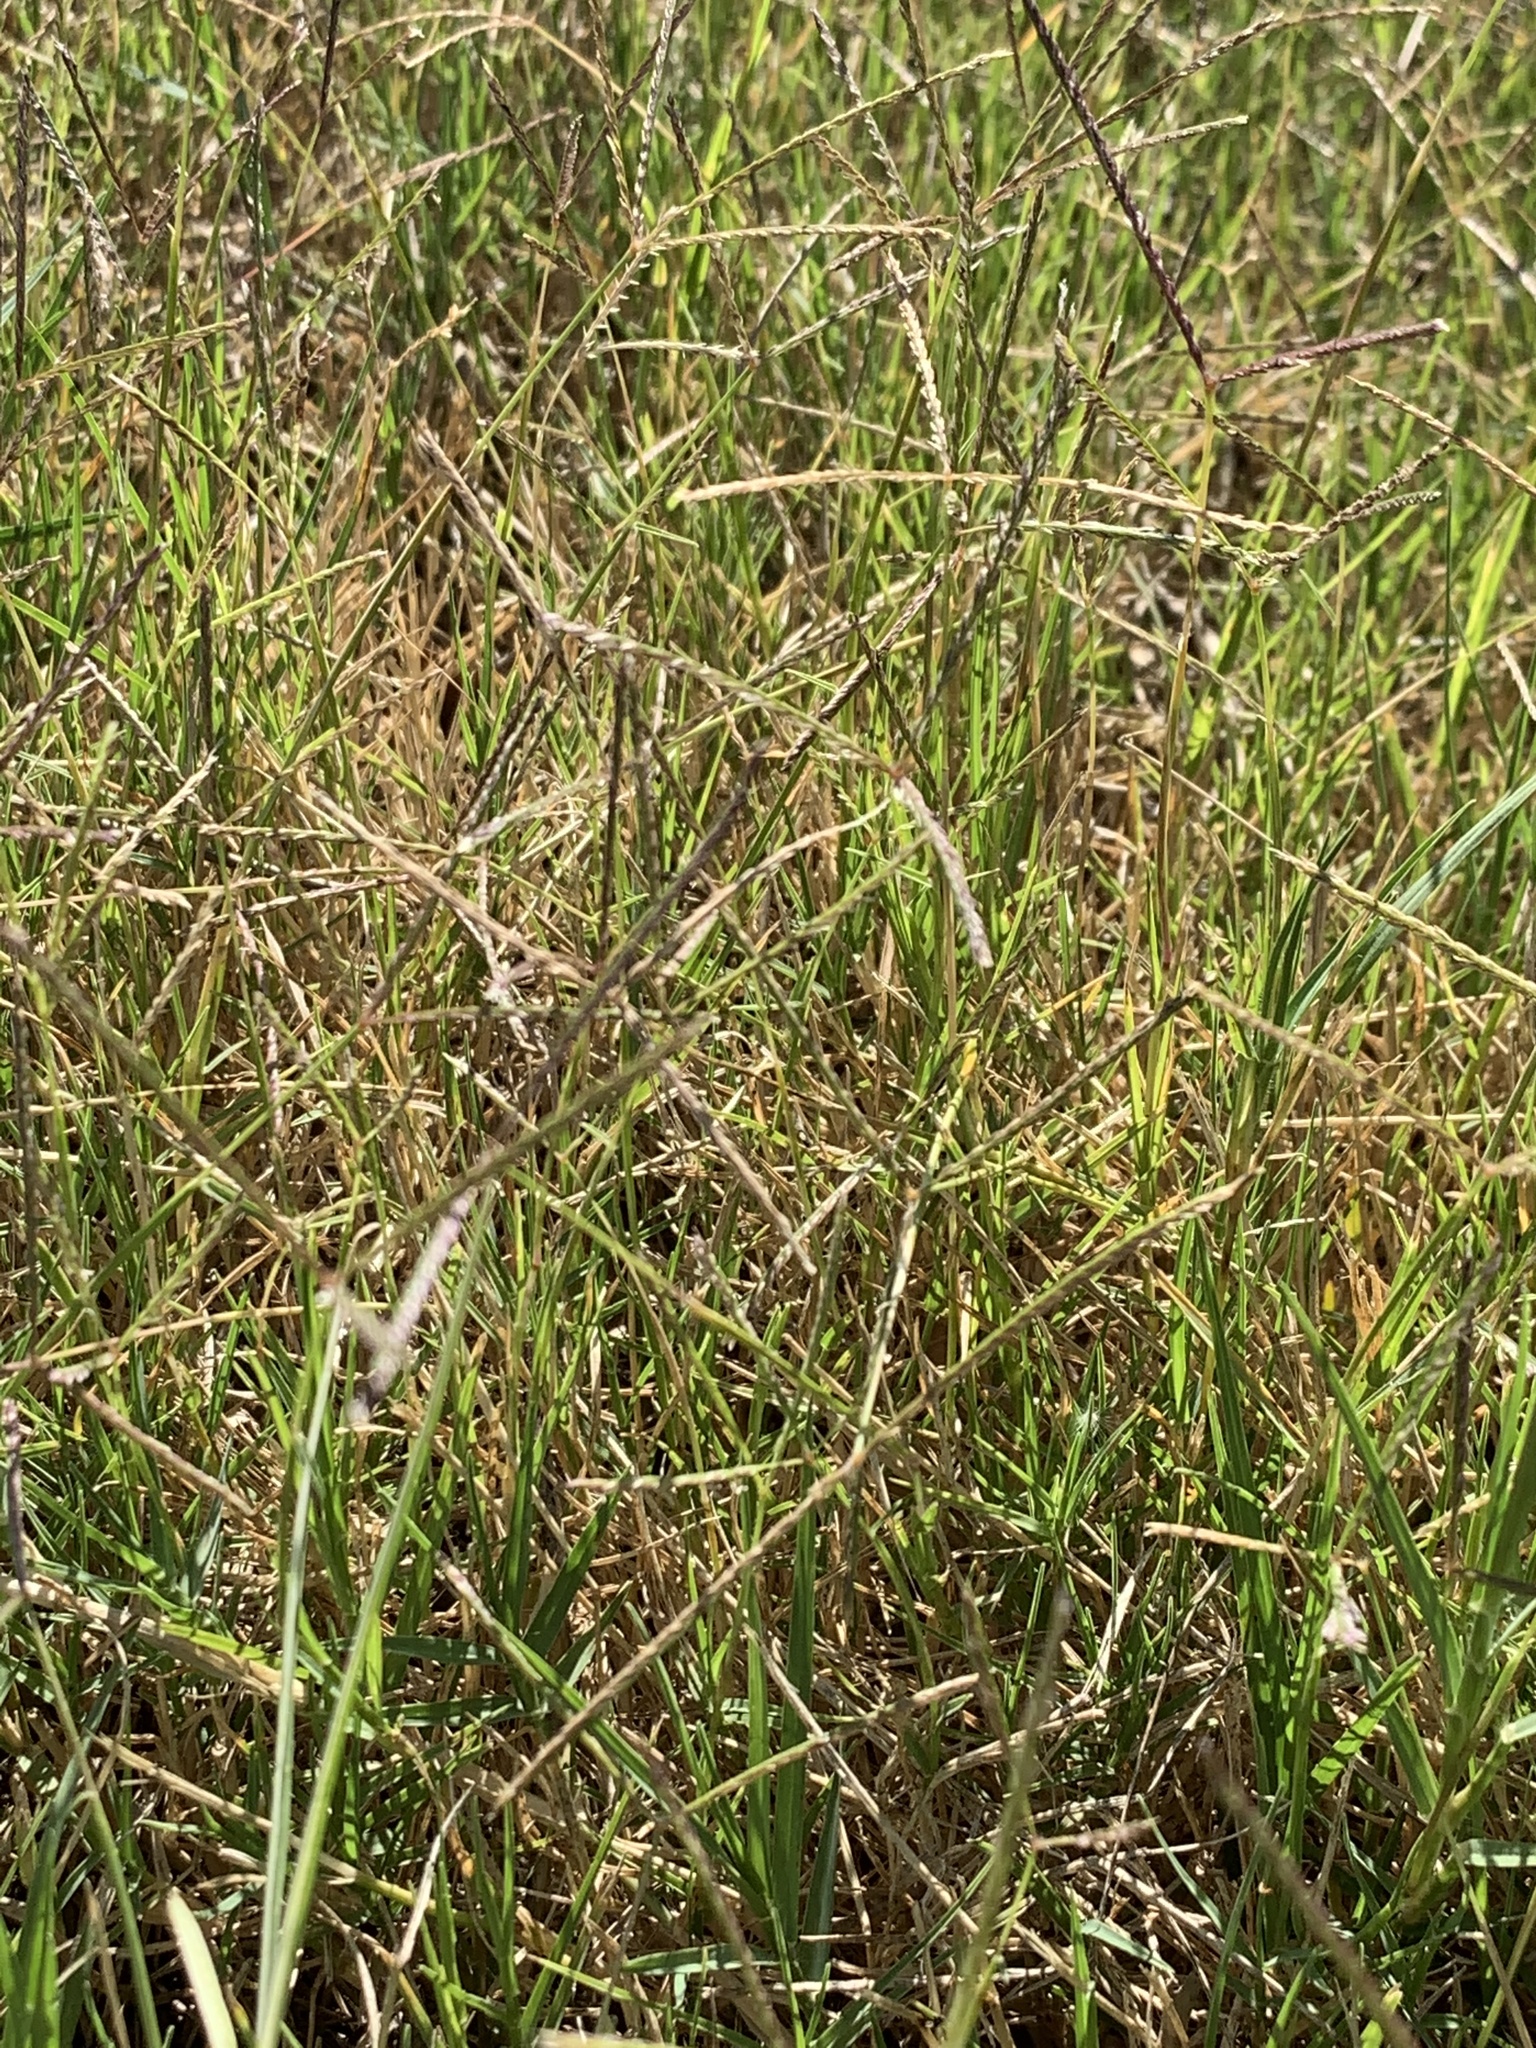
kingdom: Plantae
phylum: Tracheophyta
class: Liliopsida
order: Poales
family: Poaceae
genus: Cynodon
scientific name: Cynodon dactylon
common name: Bermuda grass
